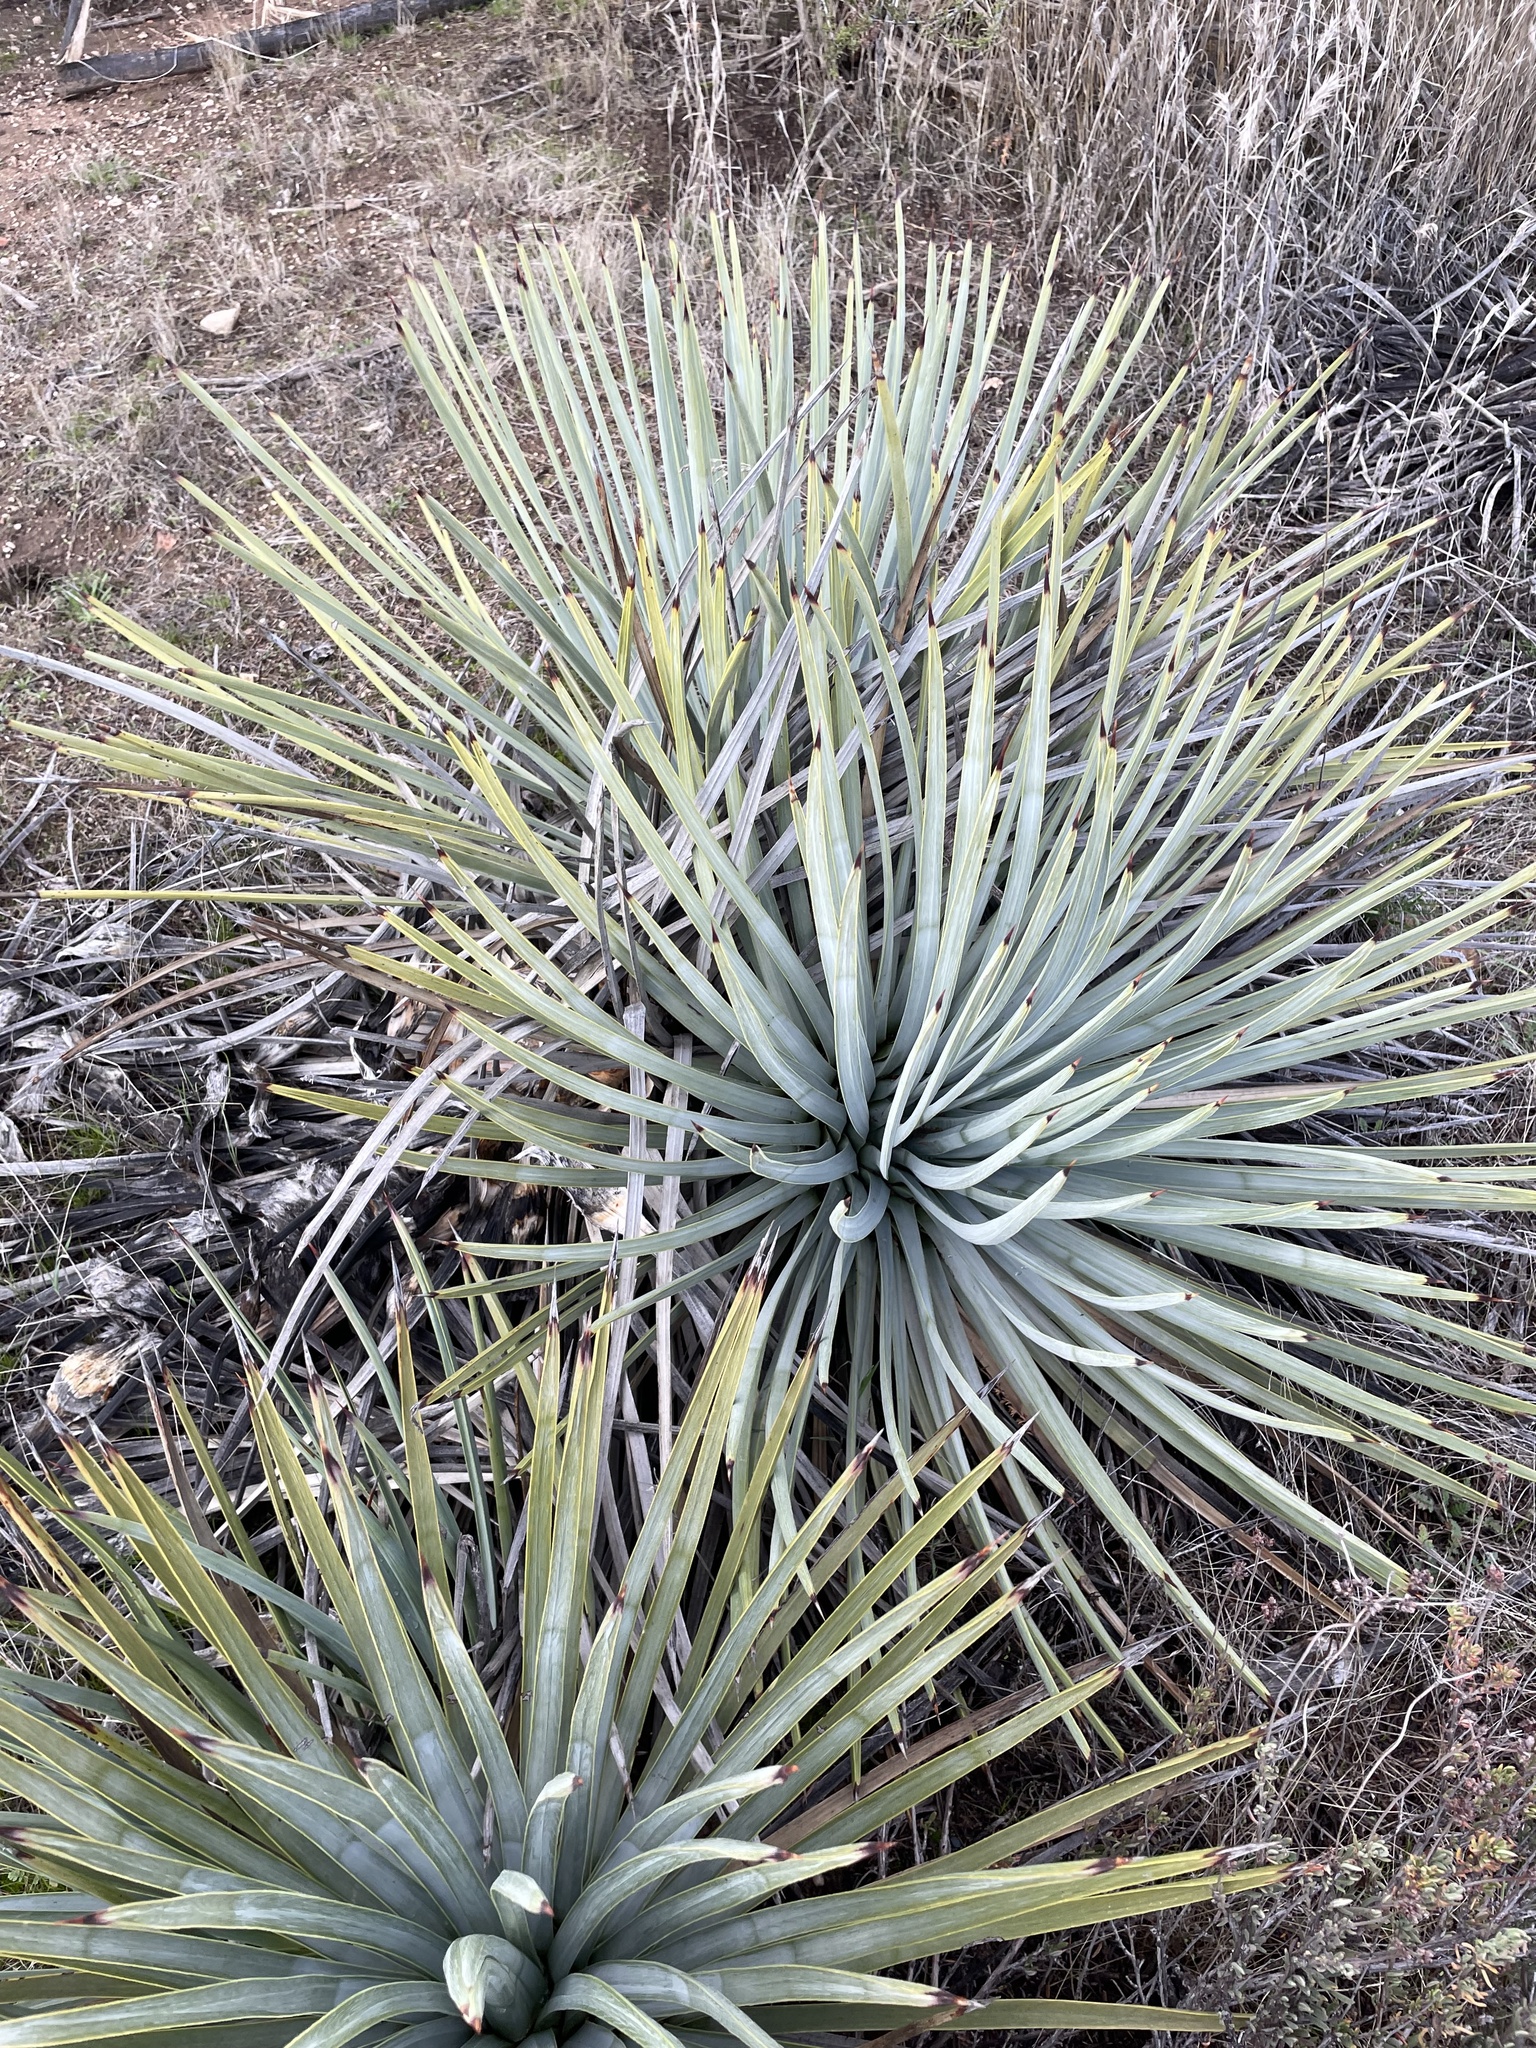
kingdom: Plantae
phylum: Tracheophyta
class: Liliopsida
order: Asparagales
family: Asparagaceae
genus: Hesperoyucca
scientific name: Hesperoyucca whipplei
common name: Our lord's-candle
